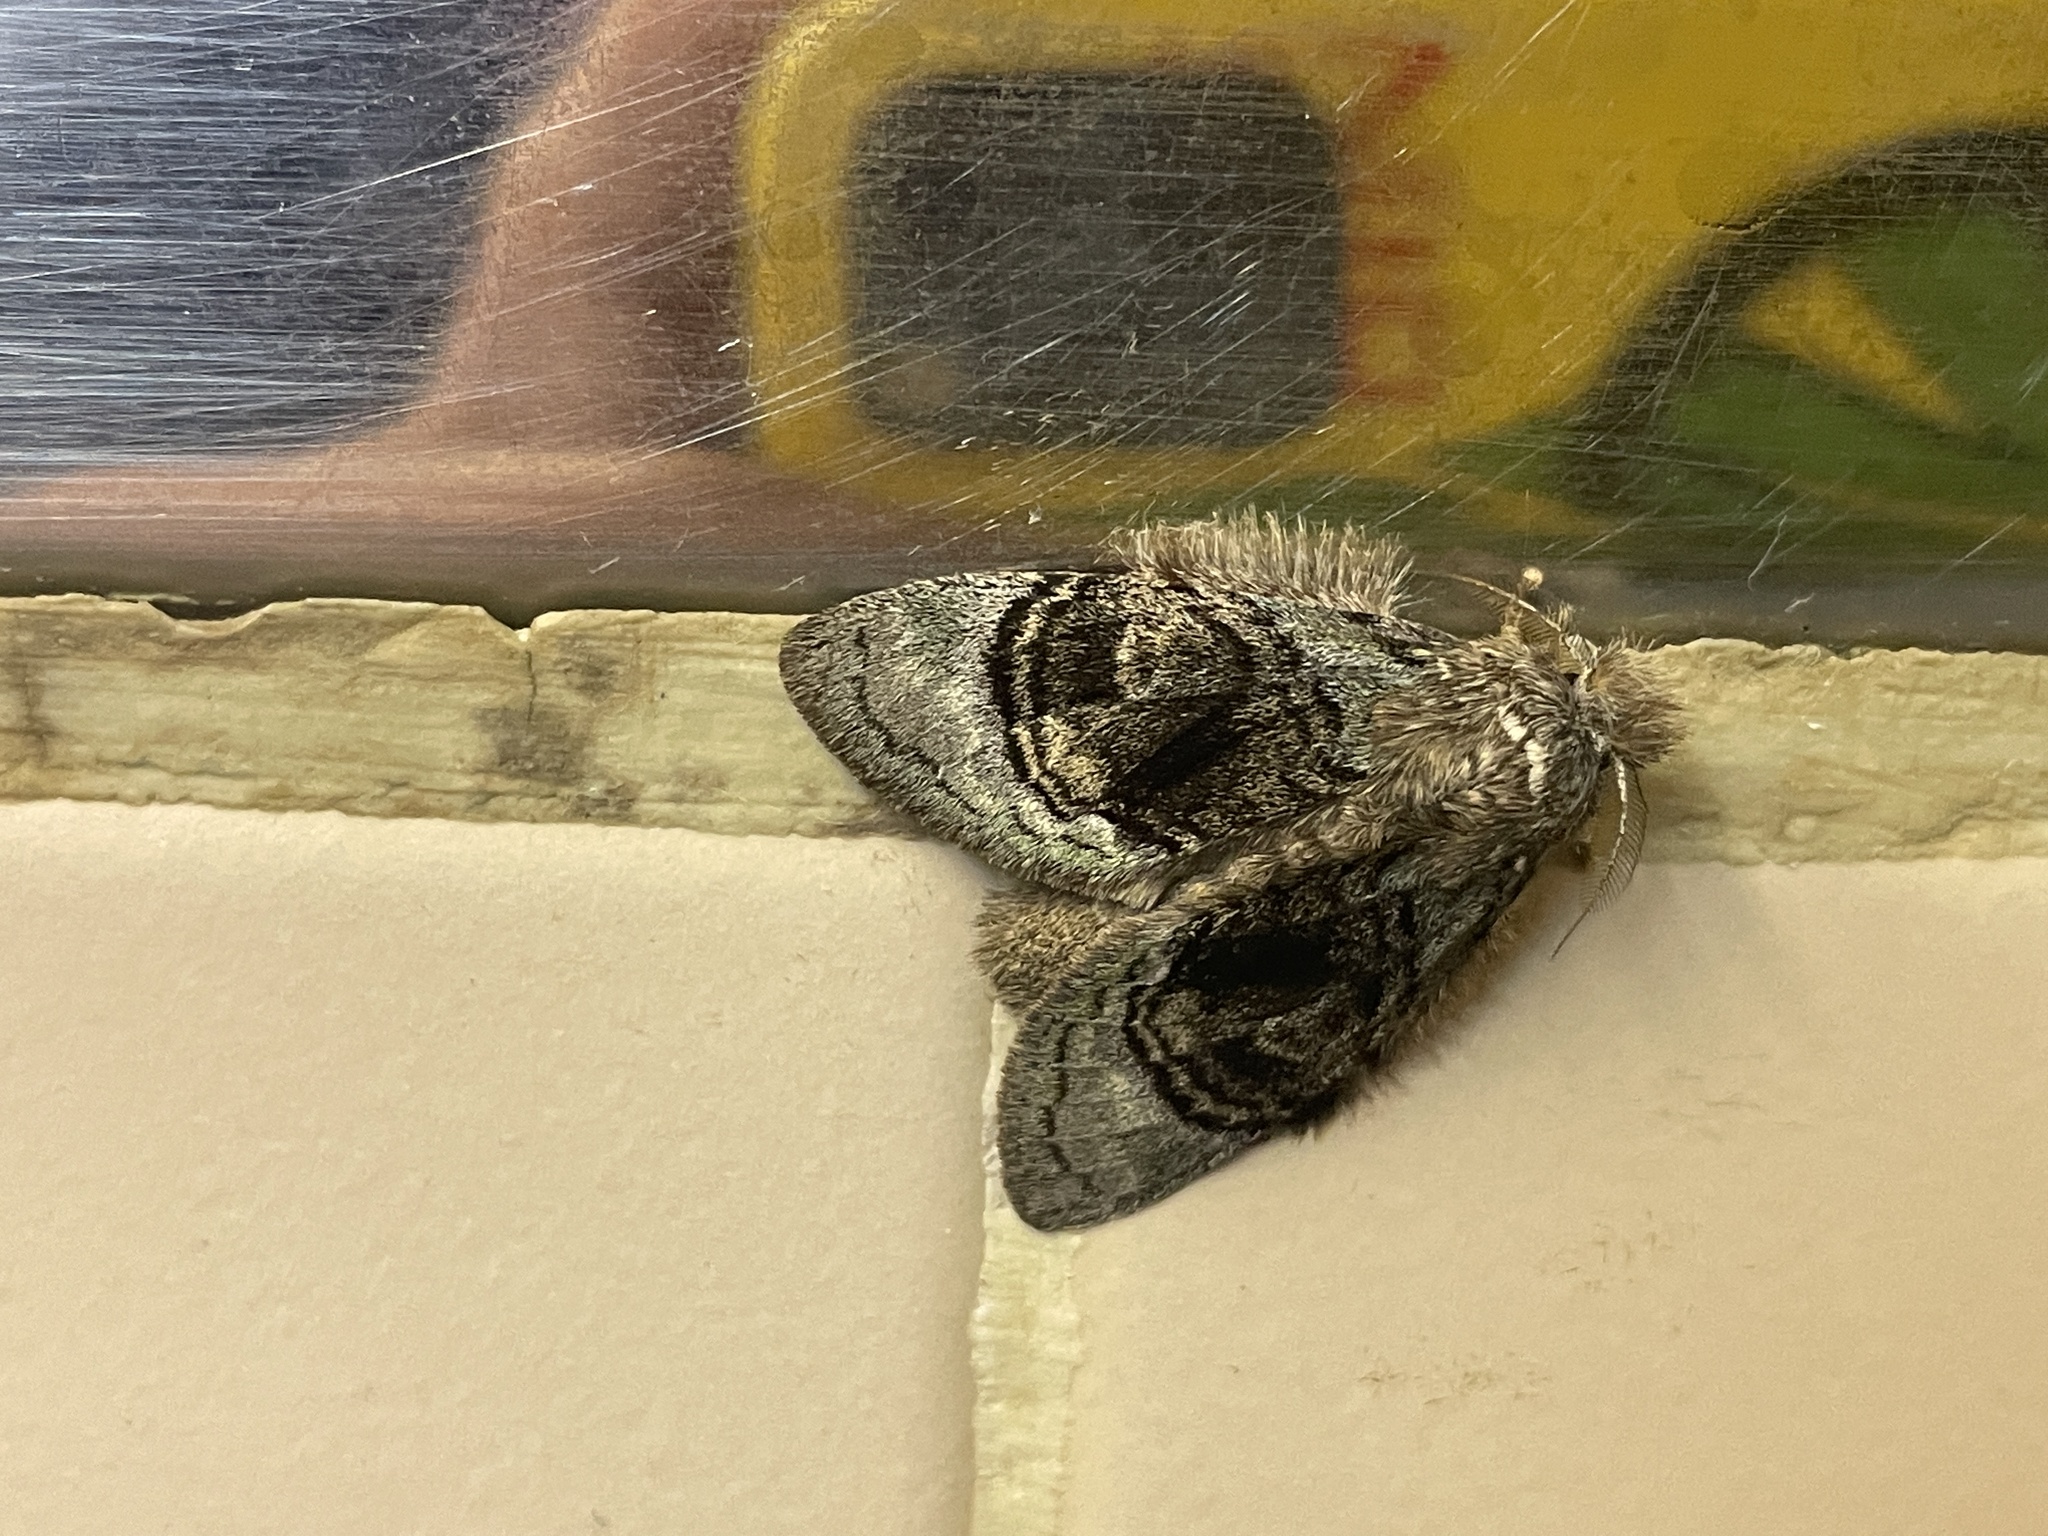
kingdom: Animalia
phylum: Arthropoda
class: Insecta
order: Lepidoptera
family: Notodontidae
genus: Syntypistis
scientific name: Syntypistis pallidifascia
